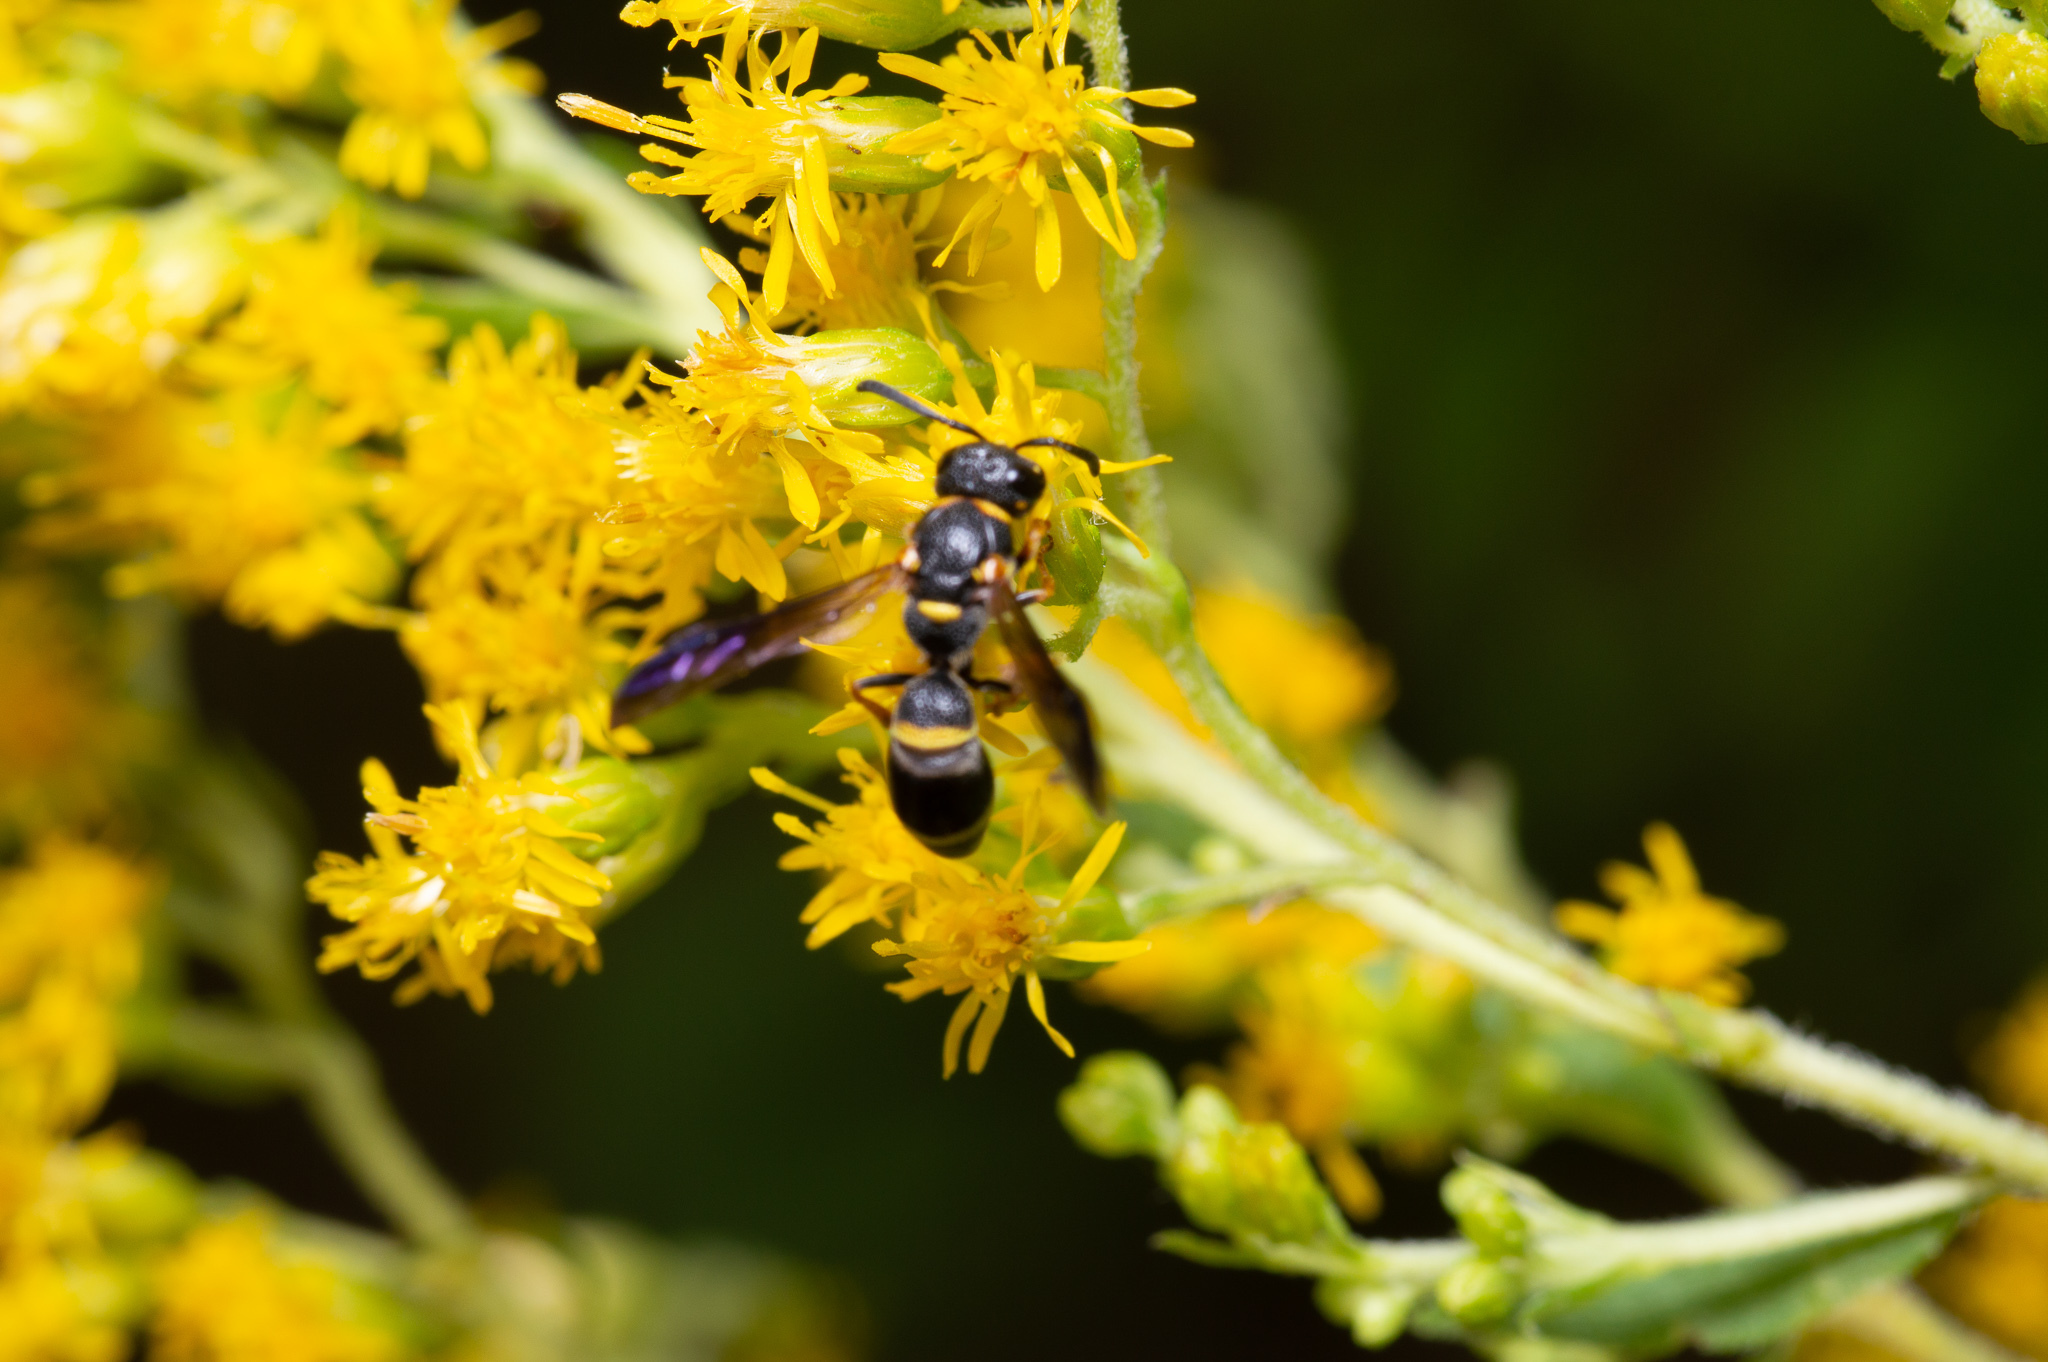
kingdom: Animalia
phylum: Arthropoda
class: Insecta
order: Hymenoptera
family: Eumenidae
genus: Parancistrocerus
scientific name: Parancistrocerus perennis
